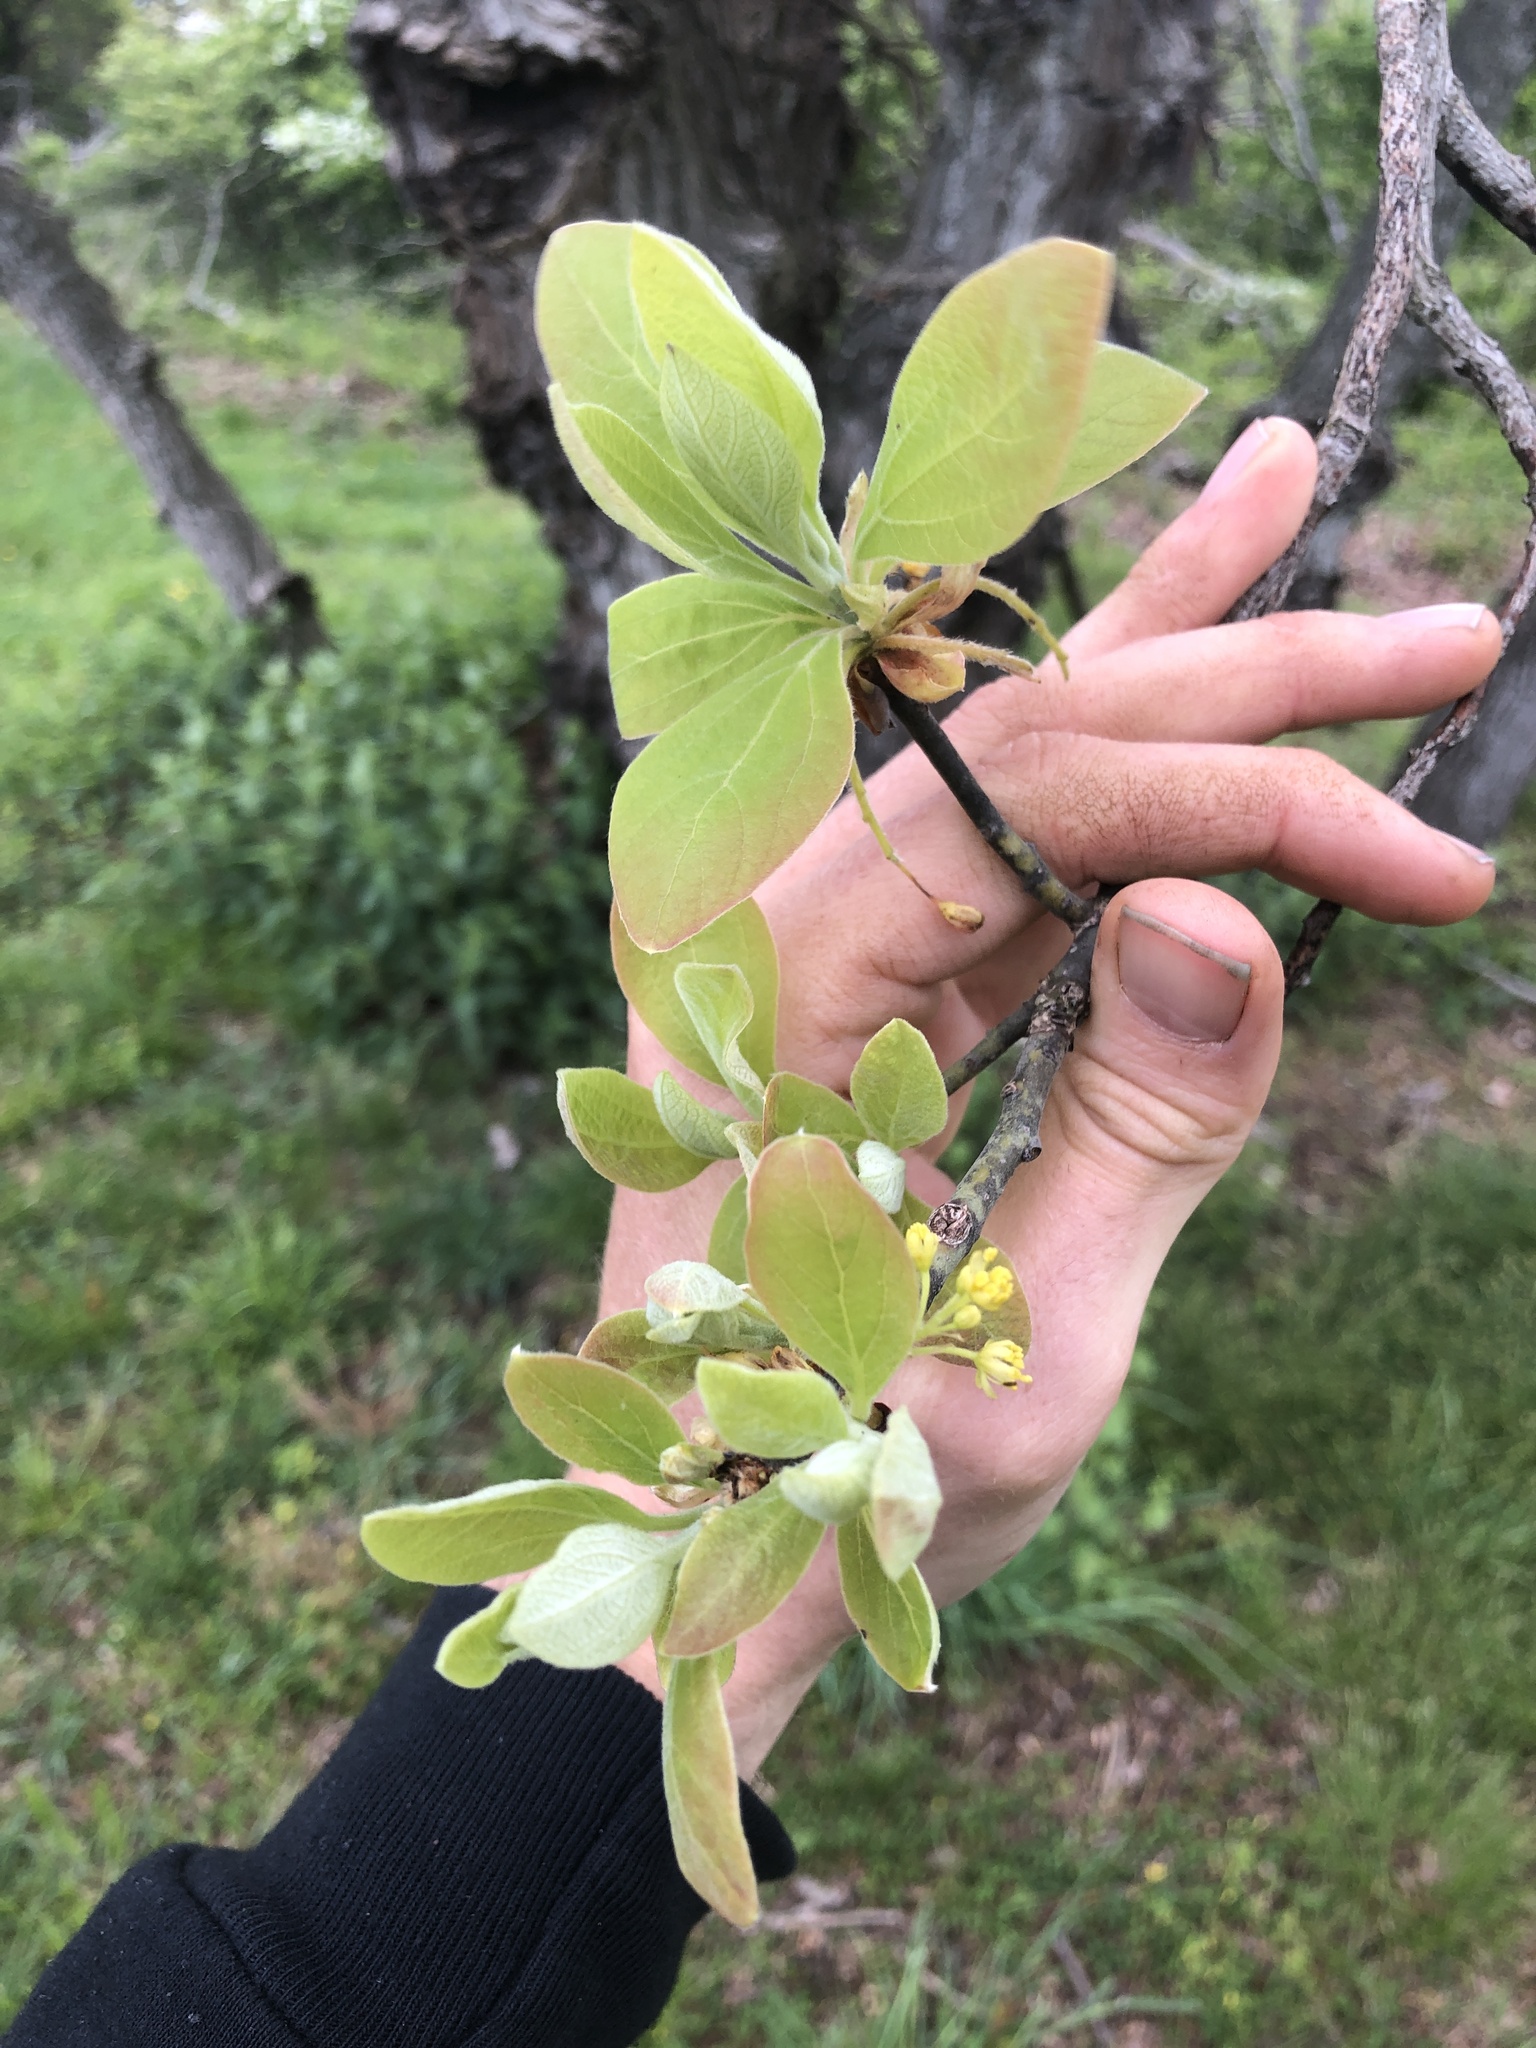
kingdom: Plantae
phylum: Tracheophyta
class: Magnoliopsida
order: Laurales
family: Lauraceae
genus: Sassafras
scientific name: Sassafras albidum
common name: Sassafras
